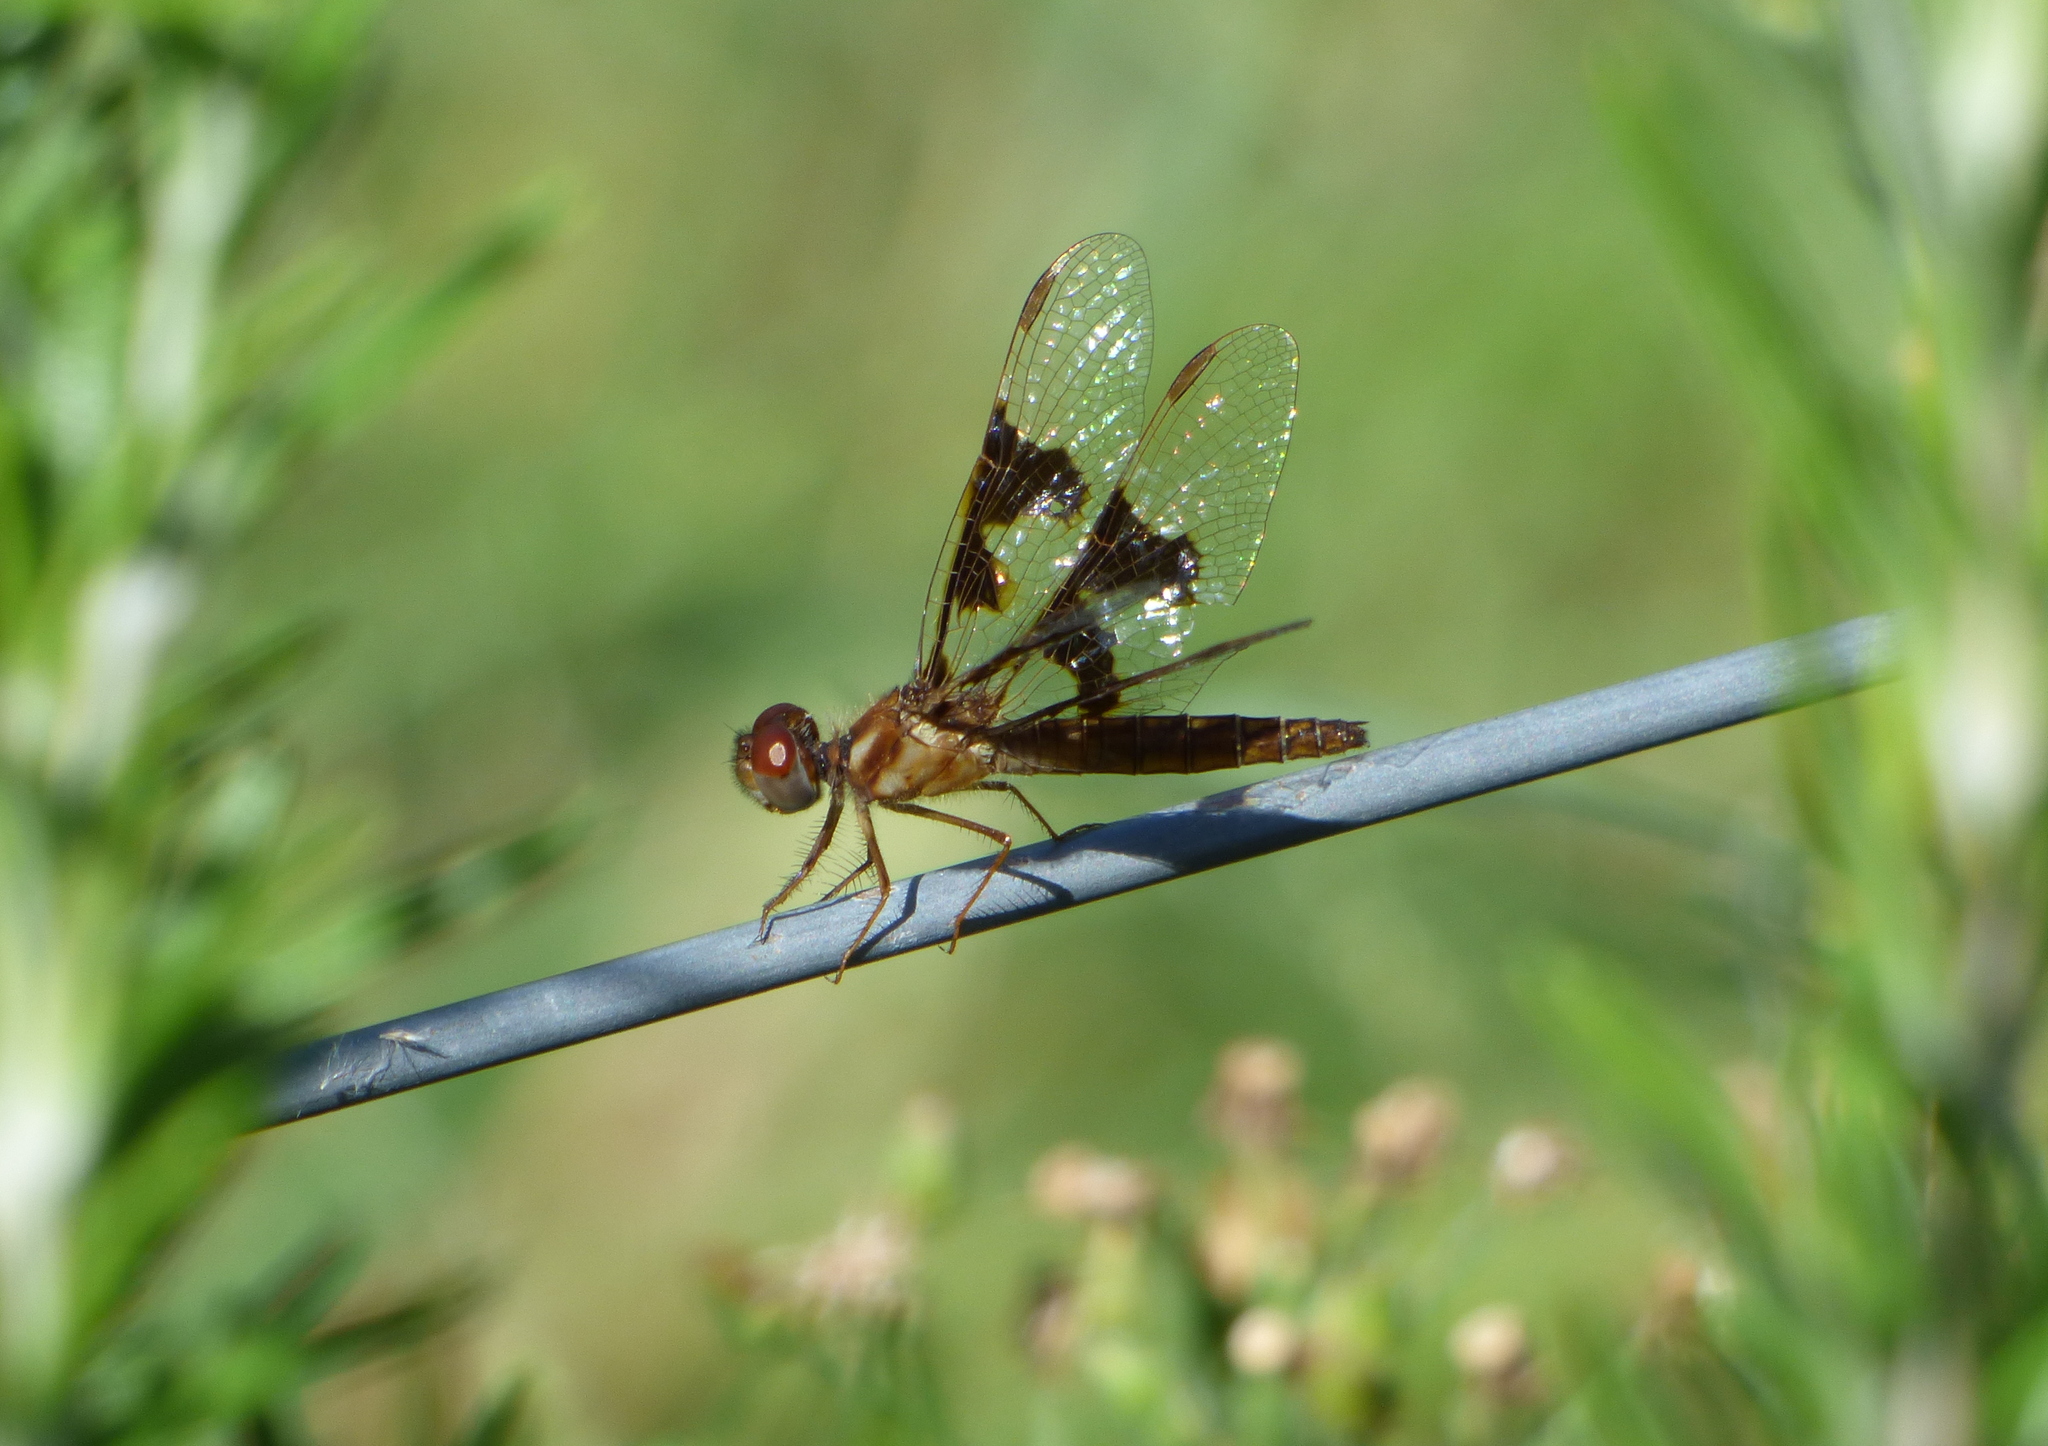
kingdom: Animalia
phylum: Arthropoda
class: Insecta
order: Odonata
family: Libellulidae
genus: Perithemis
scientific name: Perithemis tenera
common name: Eastern amberwing
